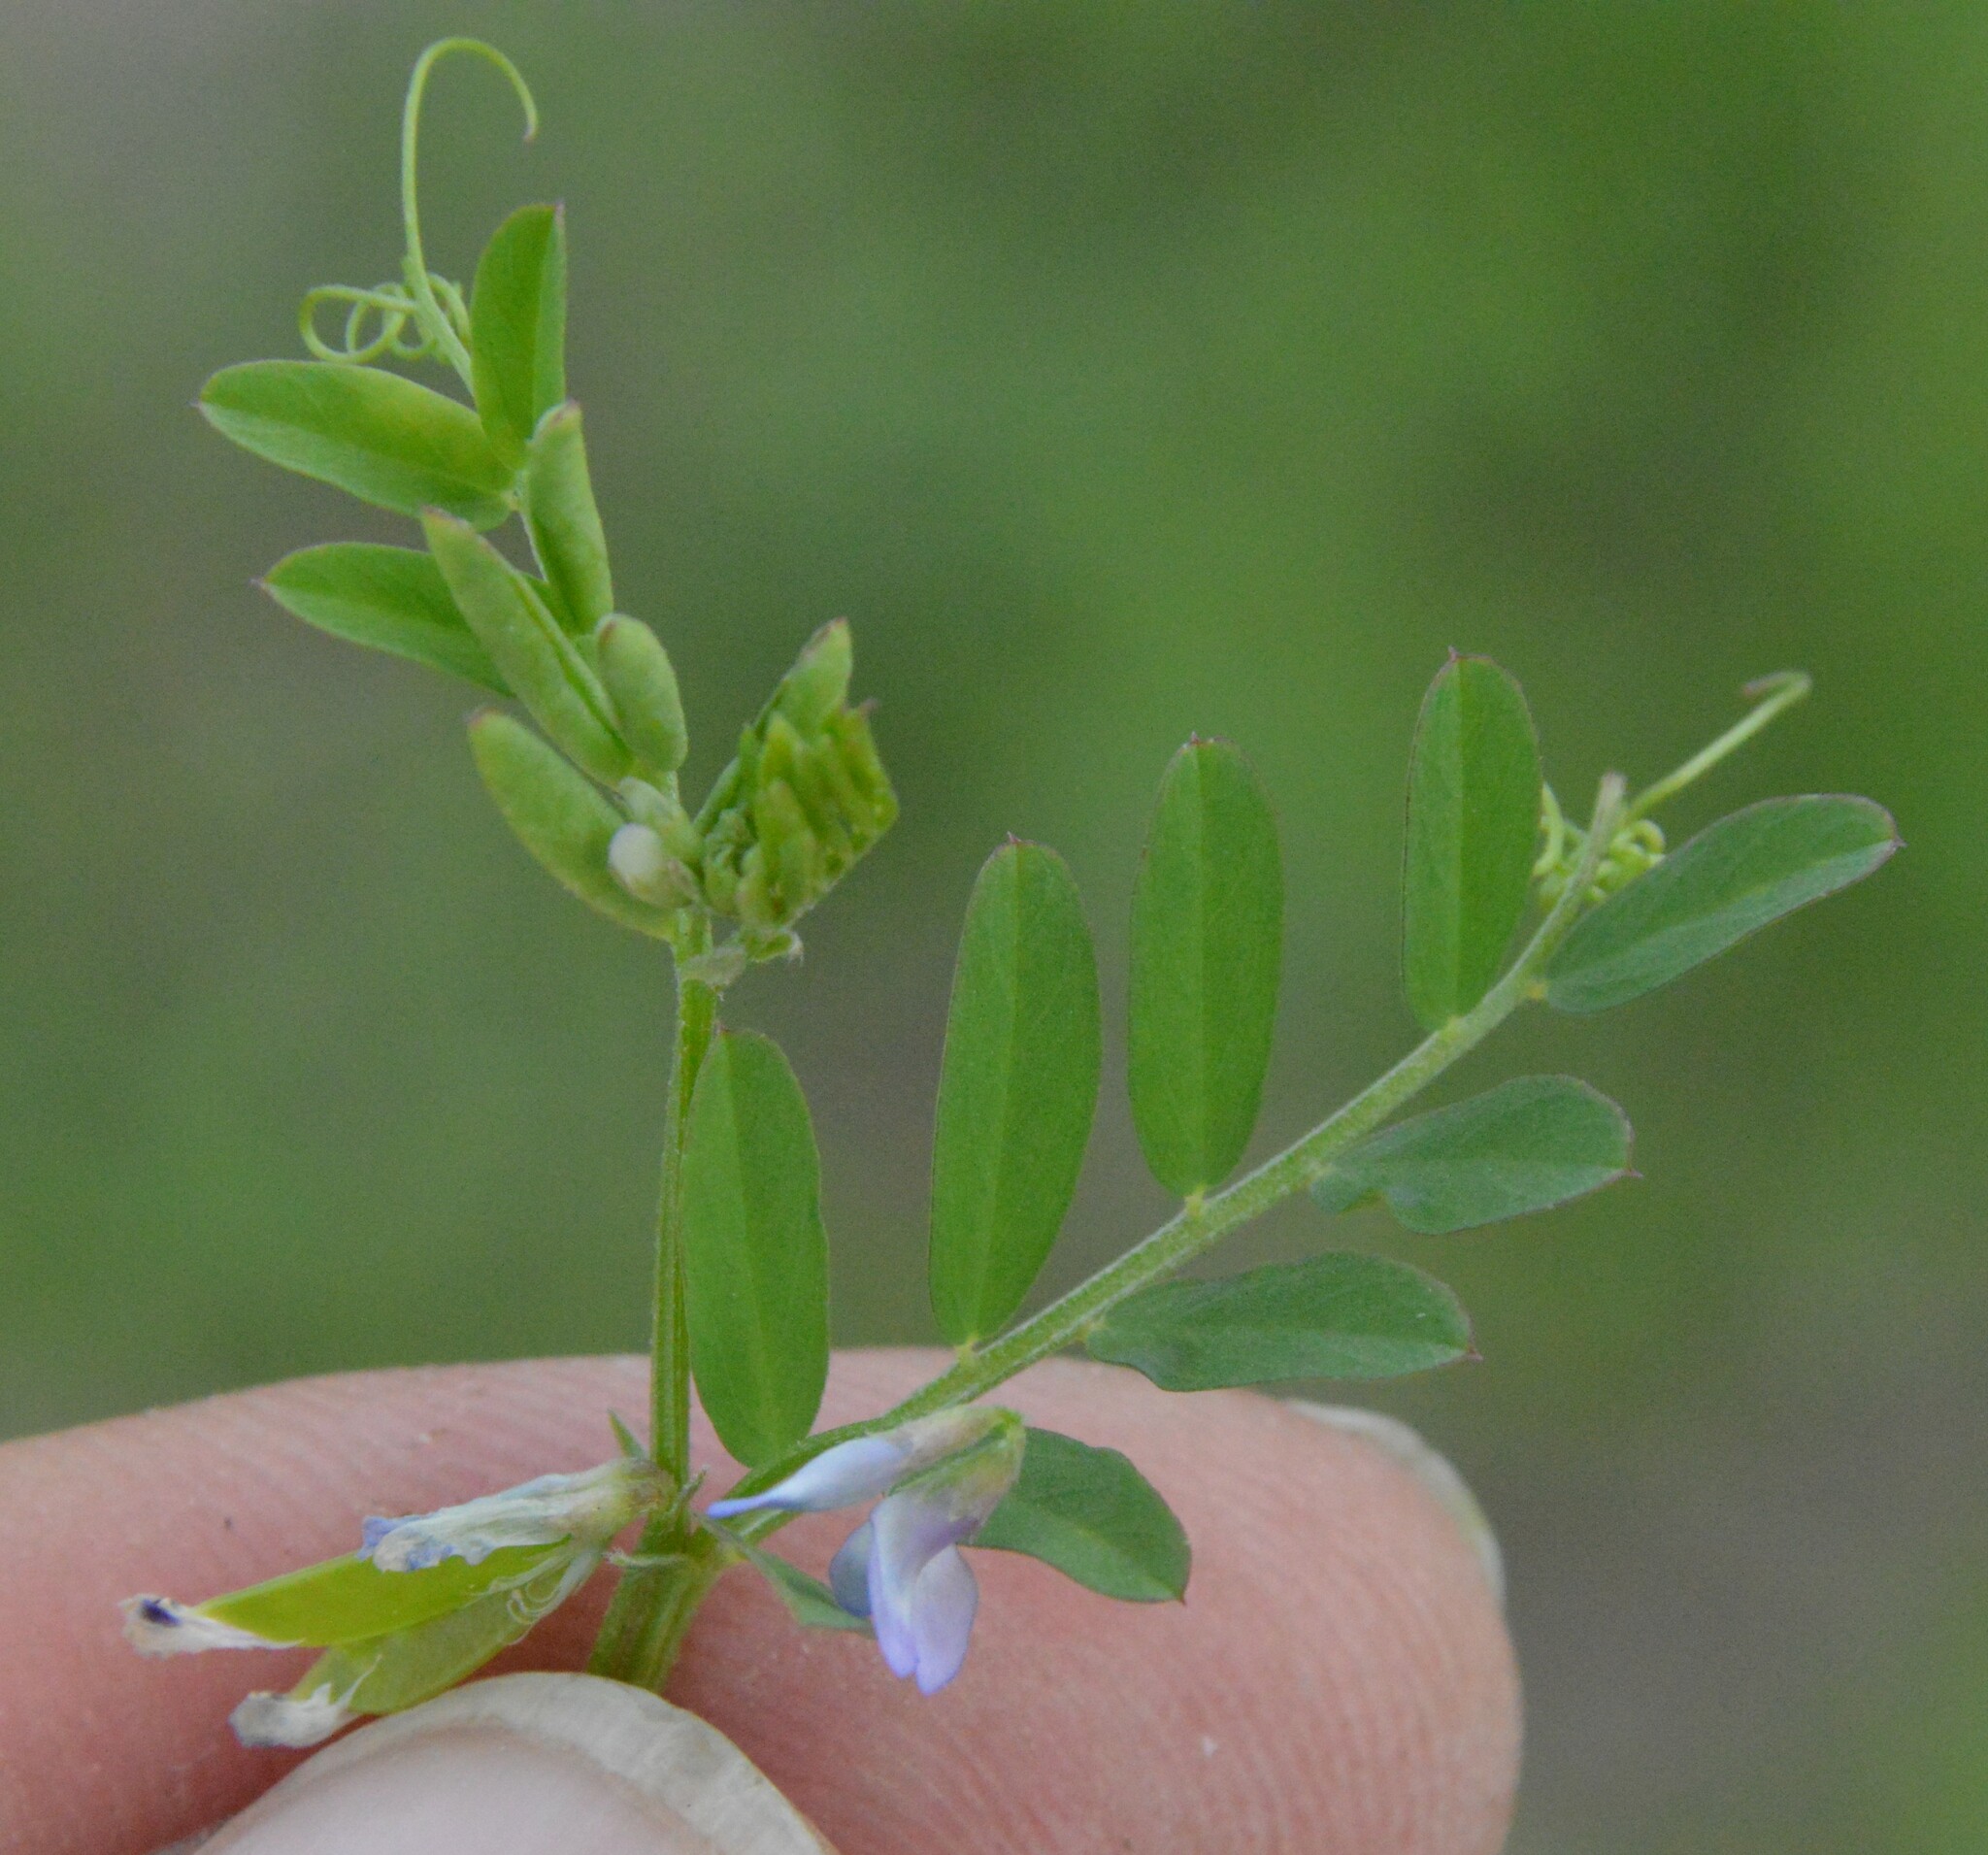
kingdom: Plantae
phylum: Tracheophyta
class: Magnoliopsida
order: Fabales
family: Fabaceae
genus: Vicia
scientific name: Vicia ludoviciana
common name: Louisiana vetch
